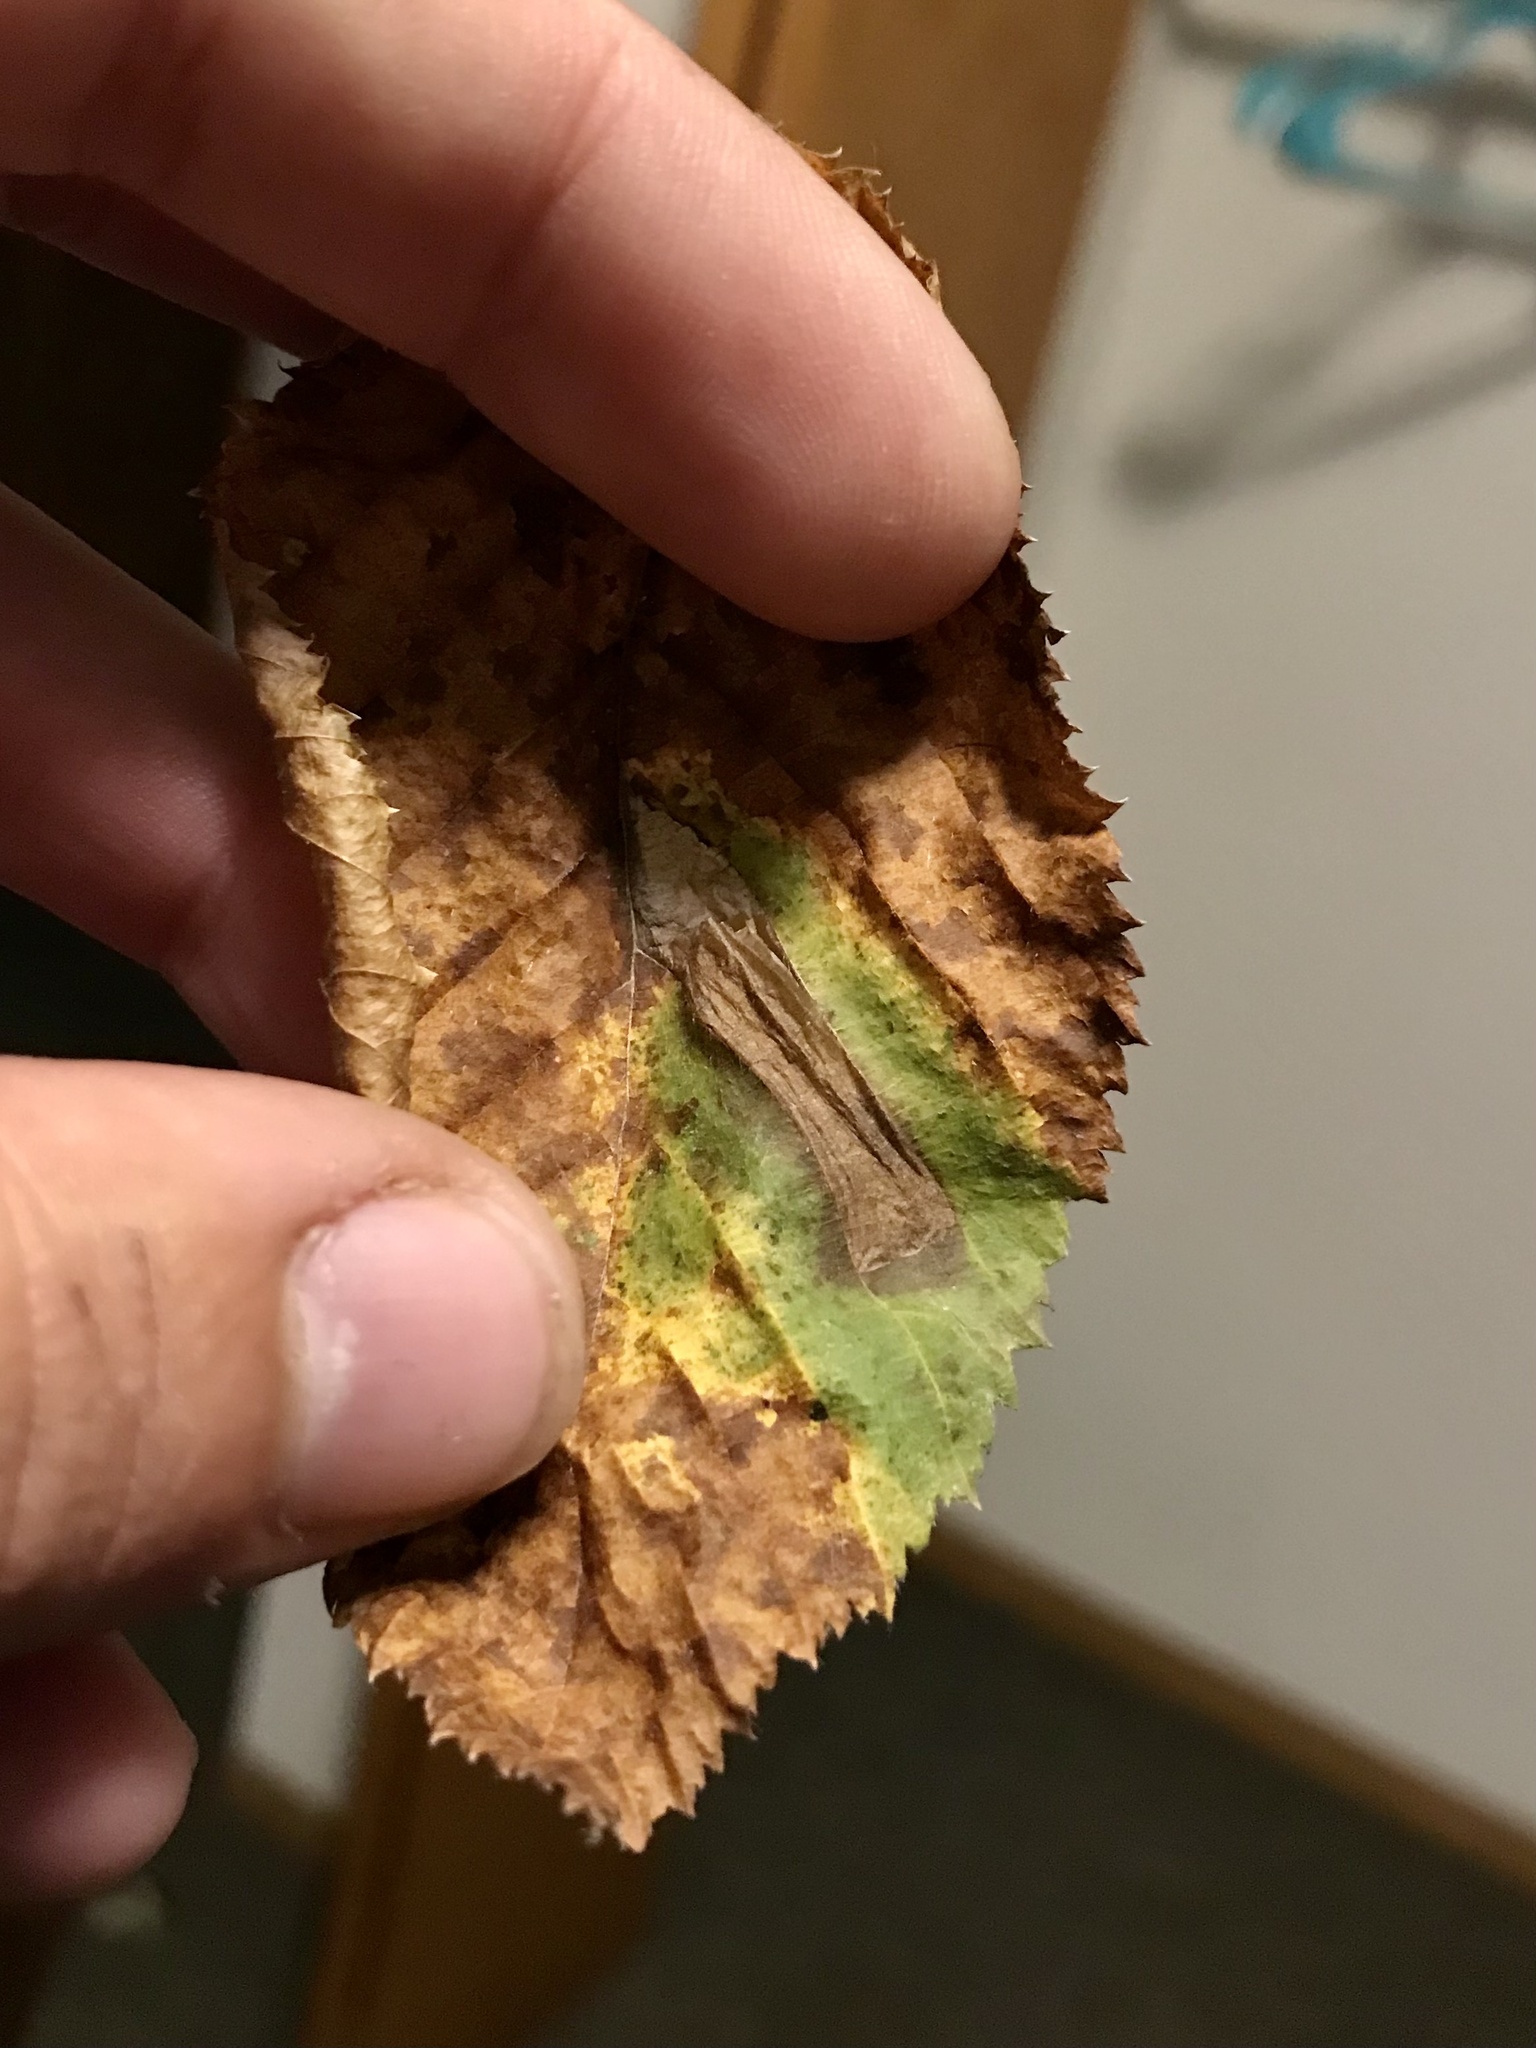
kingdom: Animalia
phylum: Arthropoda
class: Insecta
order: Lepidoptera
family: Cosmopterigidae
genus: Stilbosis
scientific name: Stilbosis ostryaeella
